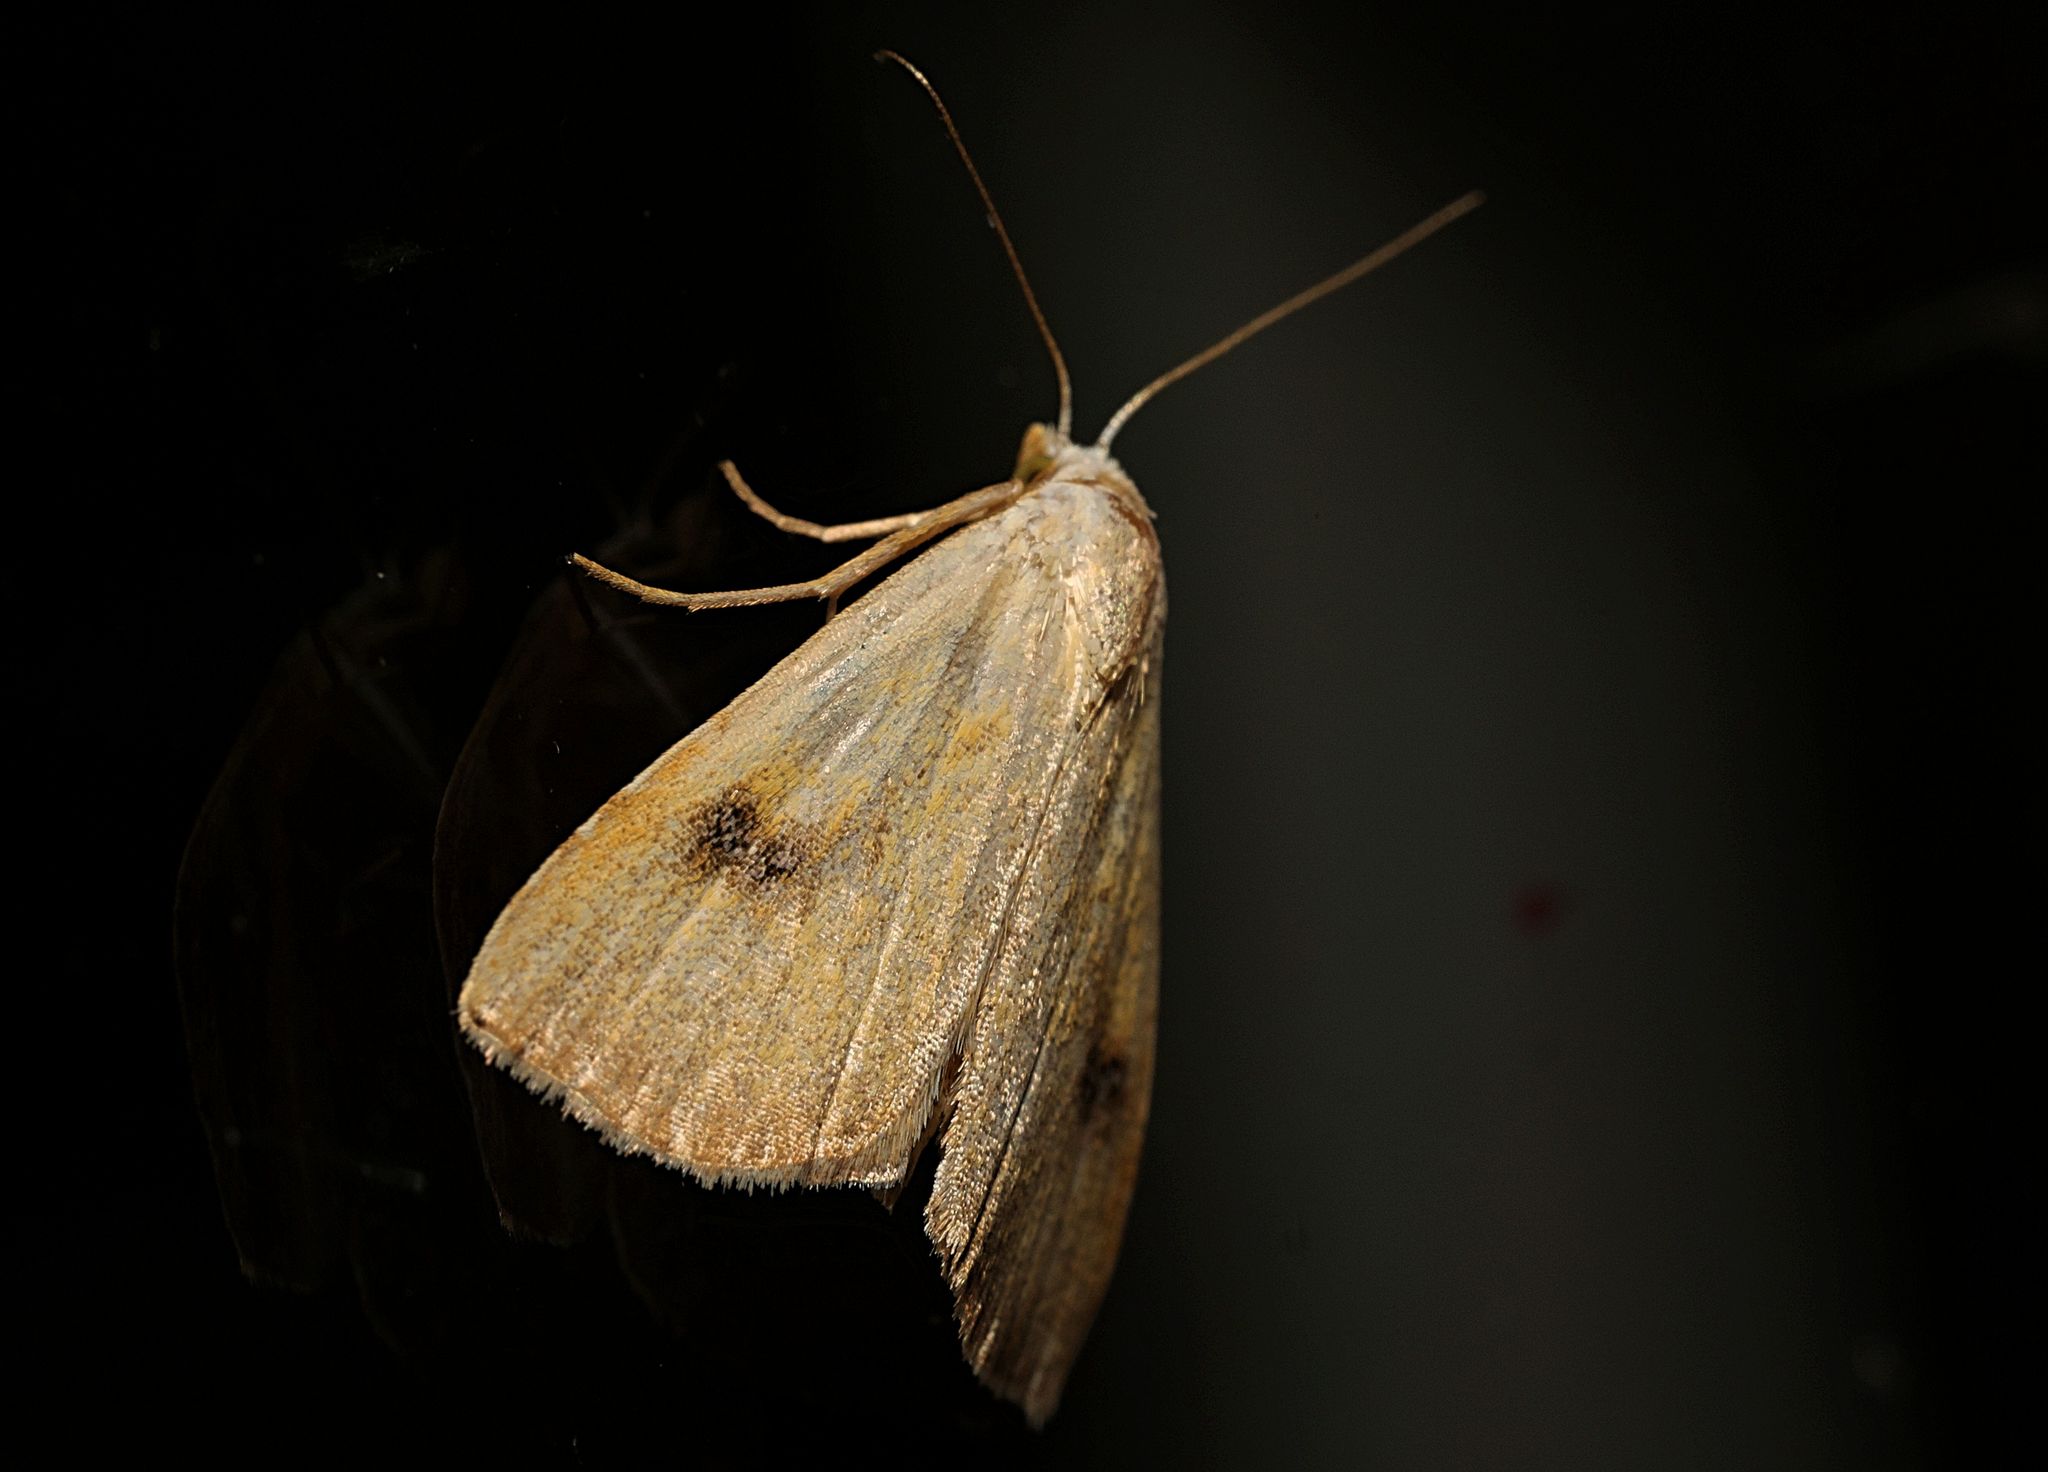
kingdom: Animalia
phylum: Arthropoda
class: Insecta
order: Lepidoptera
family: Erebidae
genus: Rivula
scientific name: Rivula sericealis
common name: Straw dot
